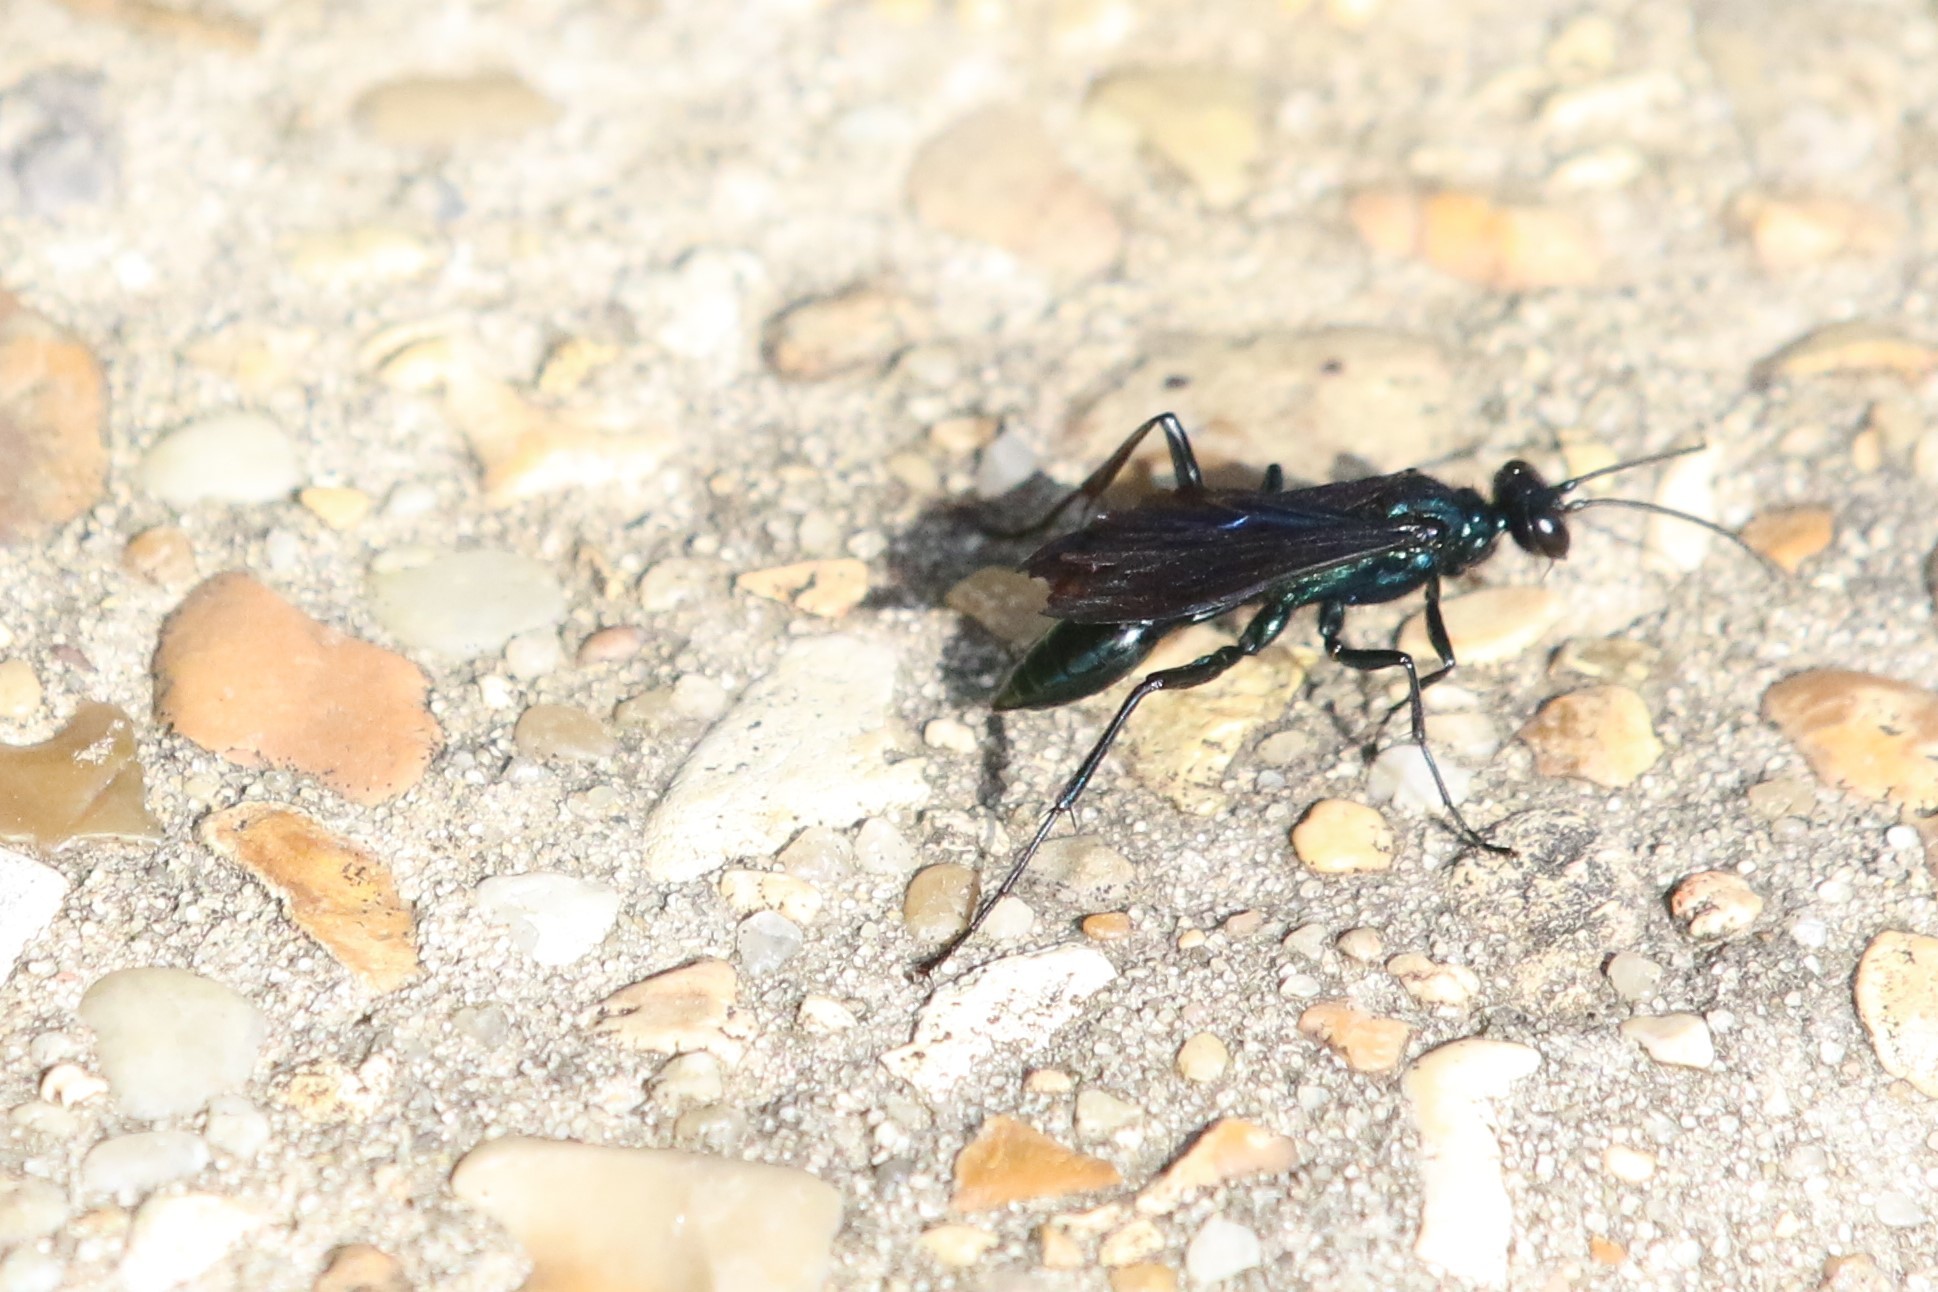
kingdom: Animalia
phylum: Arthropoda
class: Insecta
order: Hymenoptera
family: Sphecidae
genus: Chalybion
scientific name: Chalybion californicum
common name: Mud dauber
